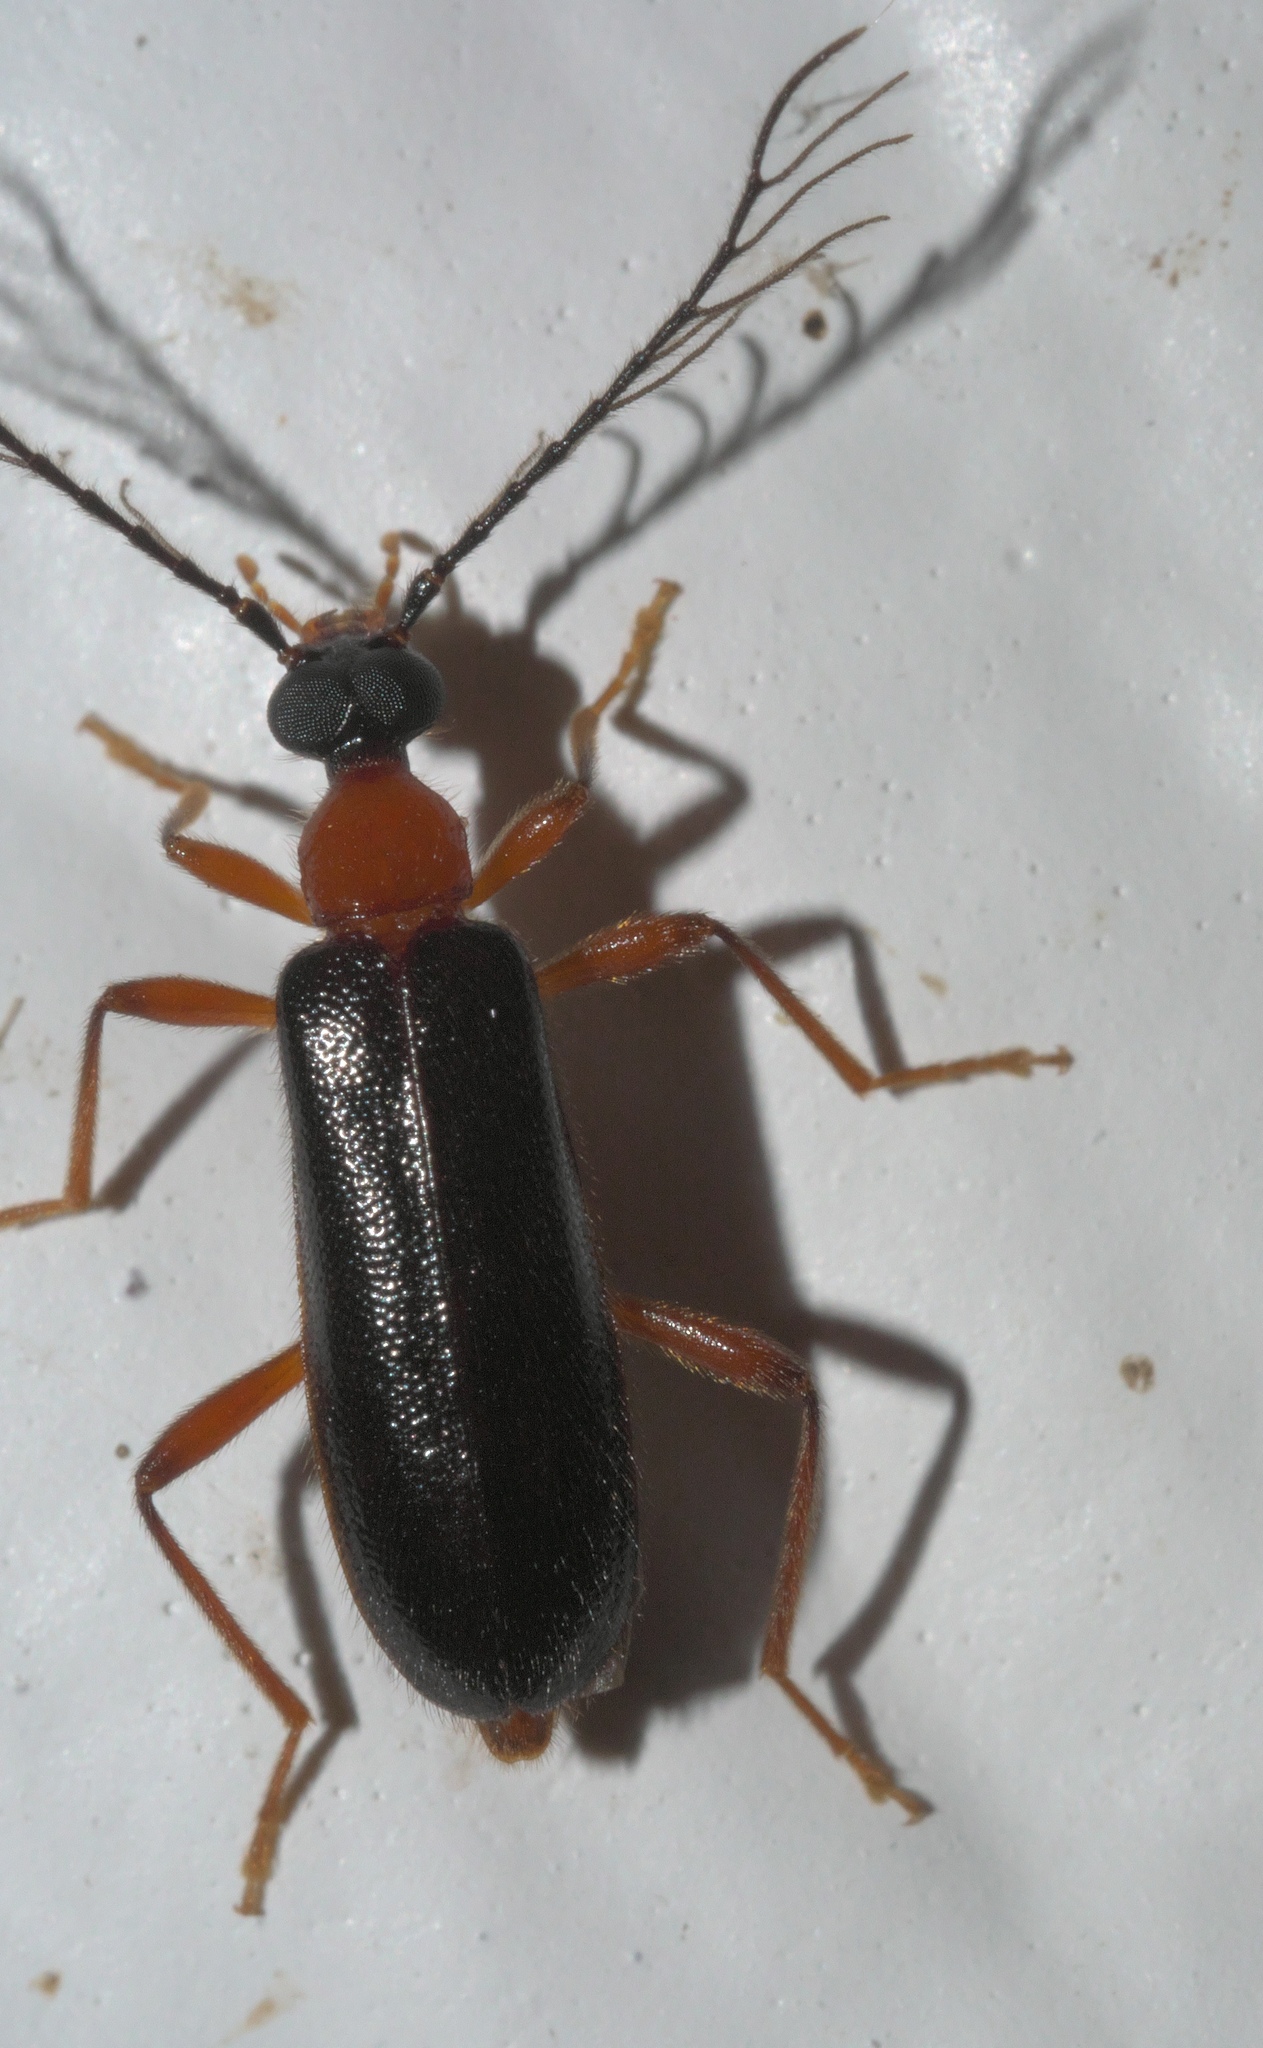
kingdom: Animalia
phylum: Arthropoda
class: Insecta
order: Coleoptera
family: Pyrochroidae
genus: Dendroides
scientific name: Dendroides canadensis
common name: Canada fire-colored beetle
